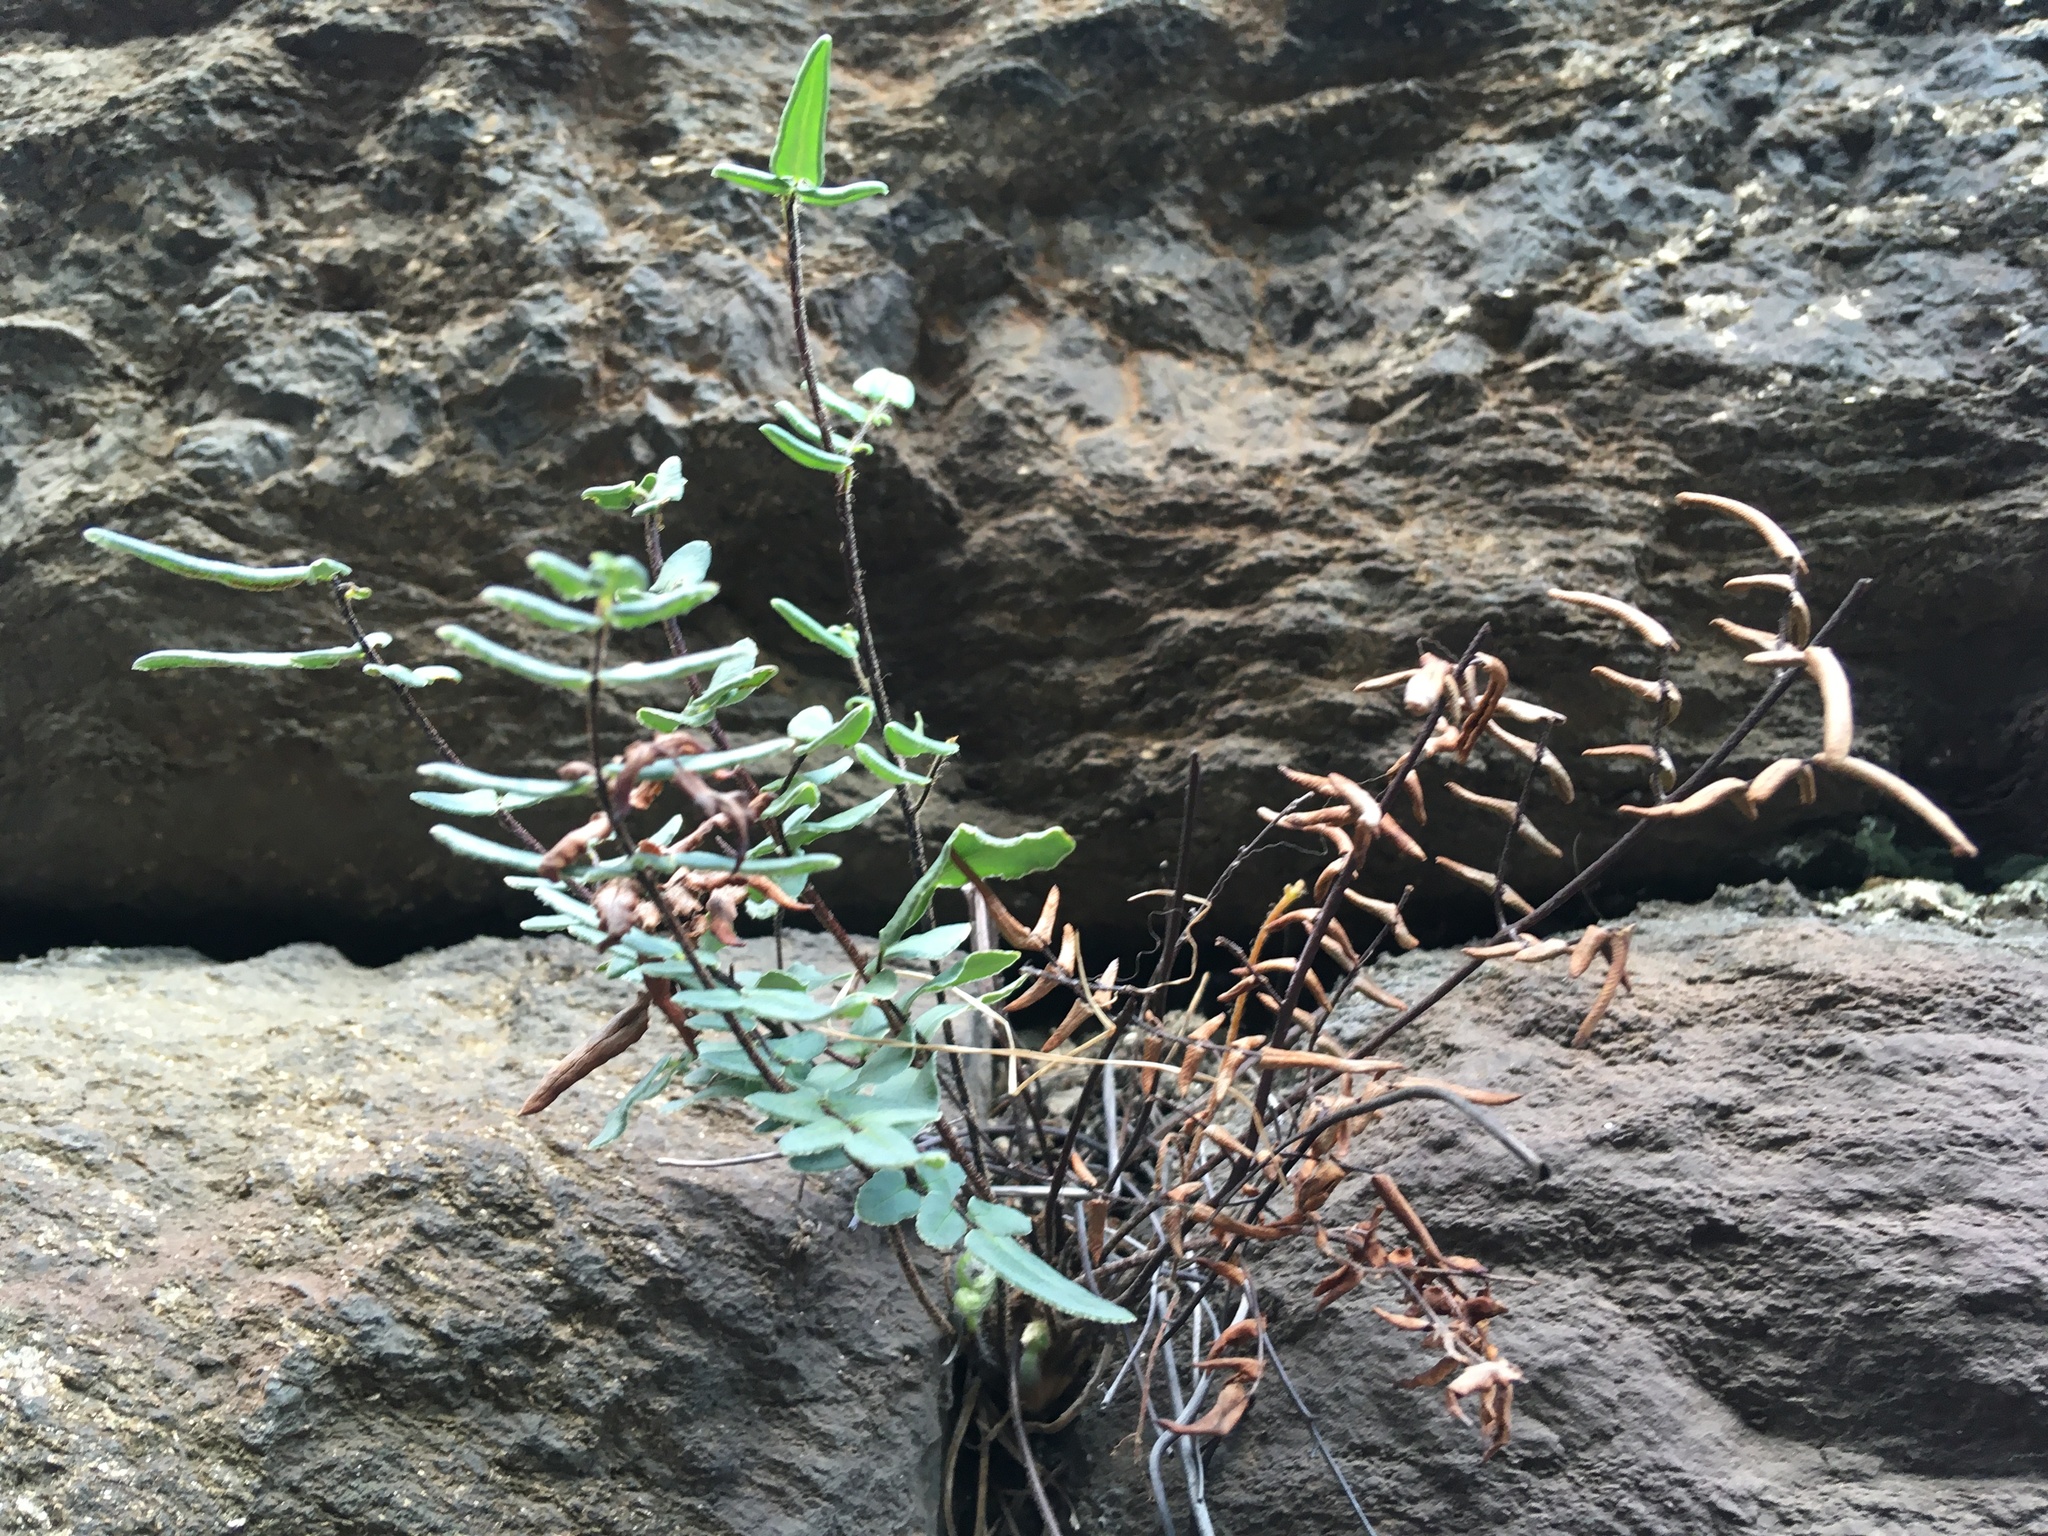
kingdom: Plantae
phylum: Tracheophyta
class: Polypodiopsida
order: Polypodiales
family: Pteridaceae
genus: Pellaea
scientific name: Pellaea atropurpurea
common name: Hairy cliffbrake
